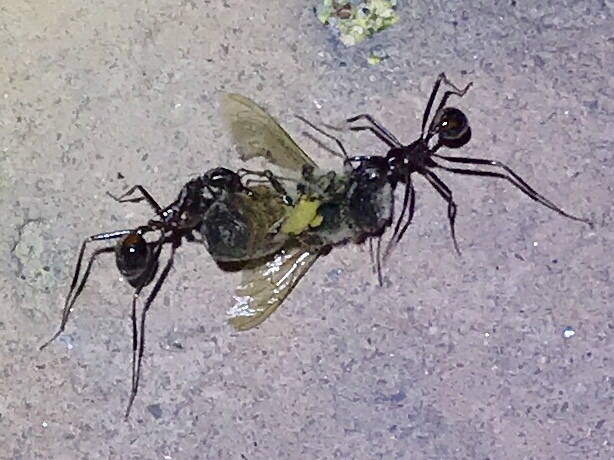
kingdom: Animalia
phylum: Arthropoda
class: Insecta
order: Hymenoptera
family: Formicidae
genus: Novomessor
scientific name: Novomessor cockerelli
